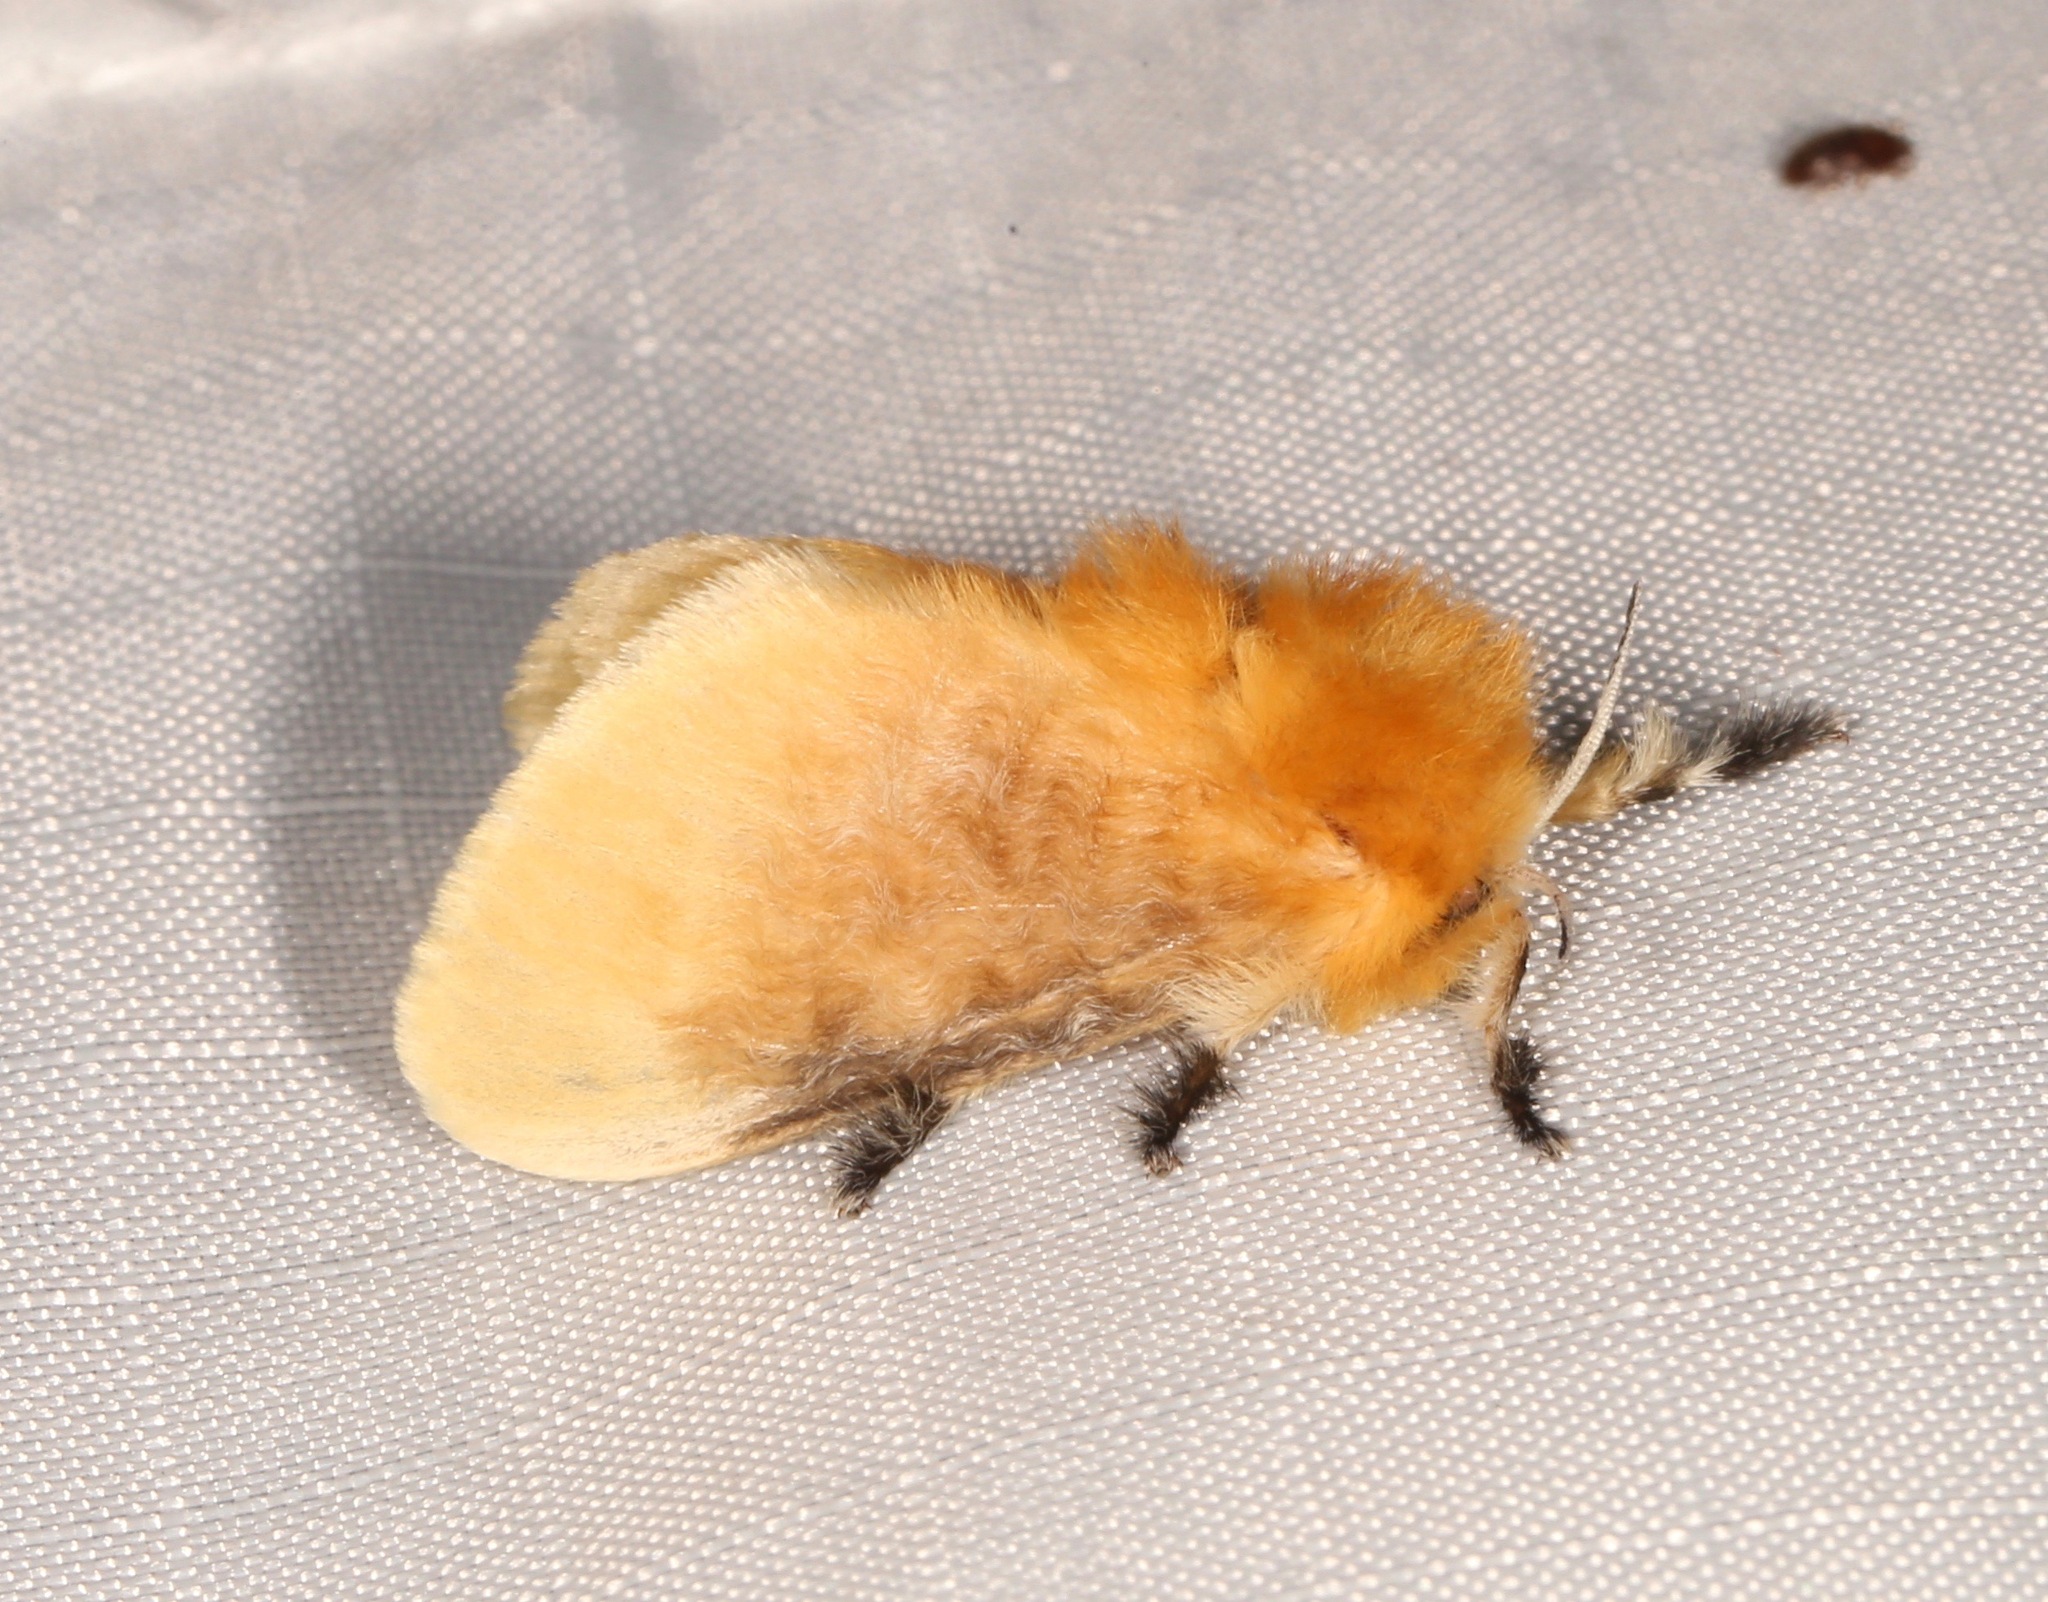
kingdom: Animalia
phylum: Arthropoda
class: Insecta
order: Lepidoptera
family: Megalopygidae
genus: Megalopyge
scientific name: Megalopyge opercularis
